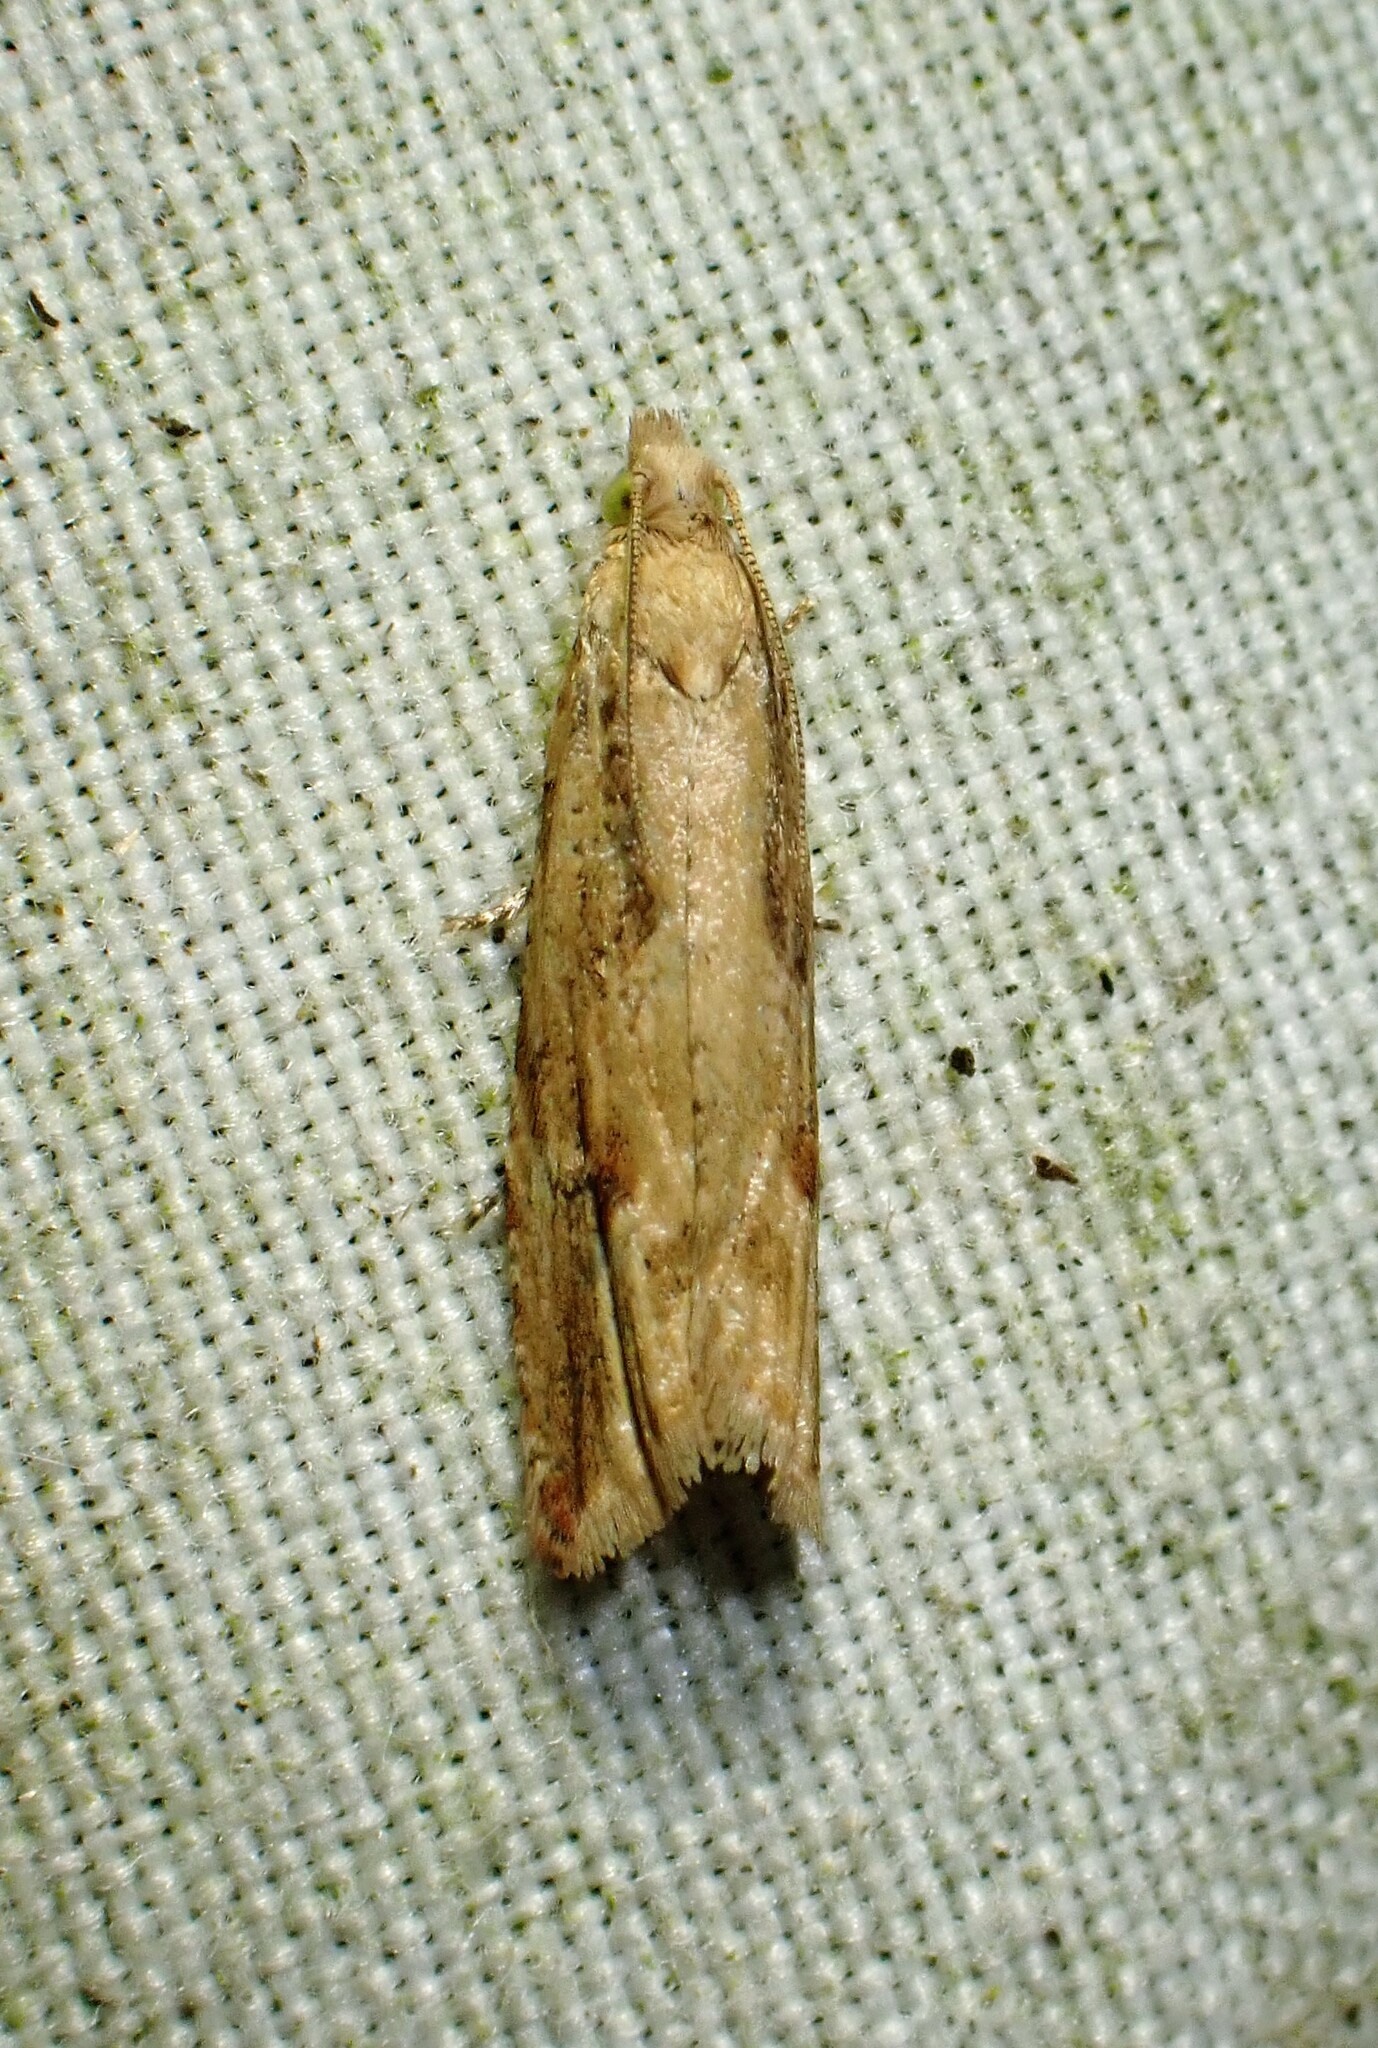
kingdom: Animalia
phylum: Arthropoda
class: Insecta
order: Lepidoptera
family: Tortricidae
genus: Bactra
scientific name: Bactra furfurana
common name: Mottled marble
